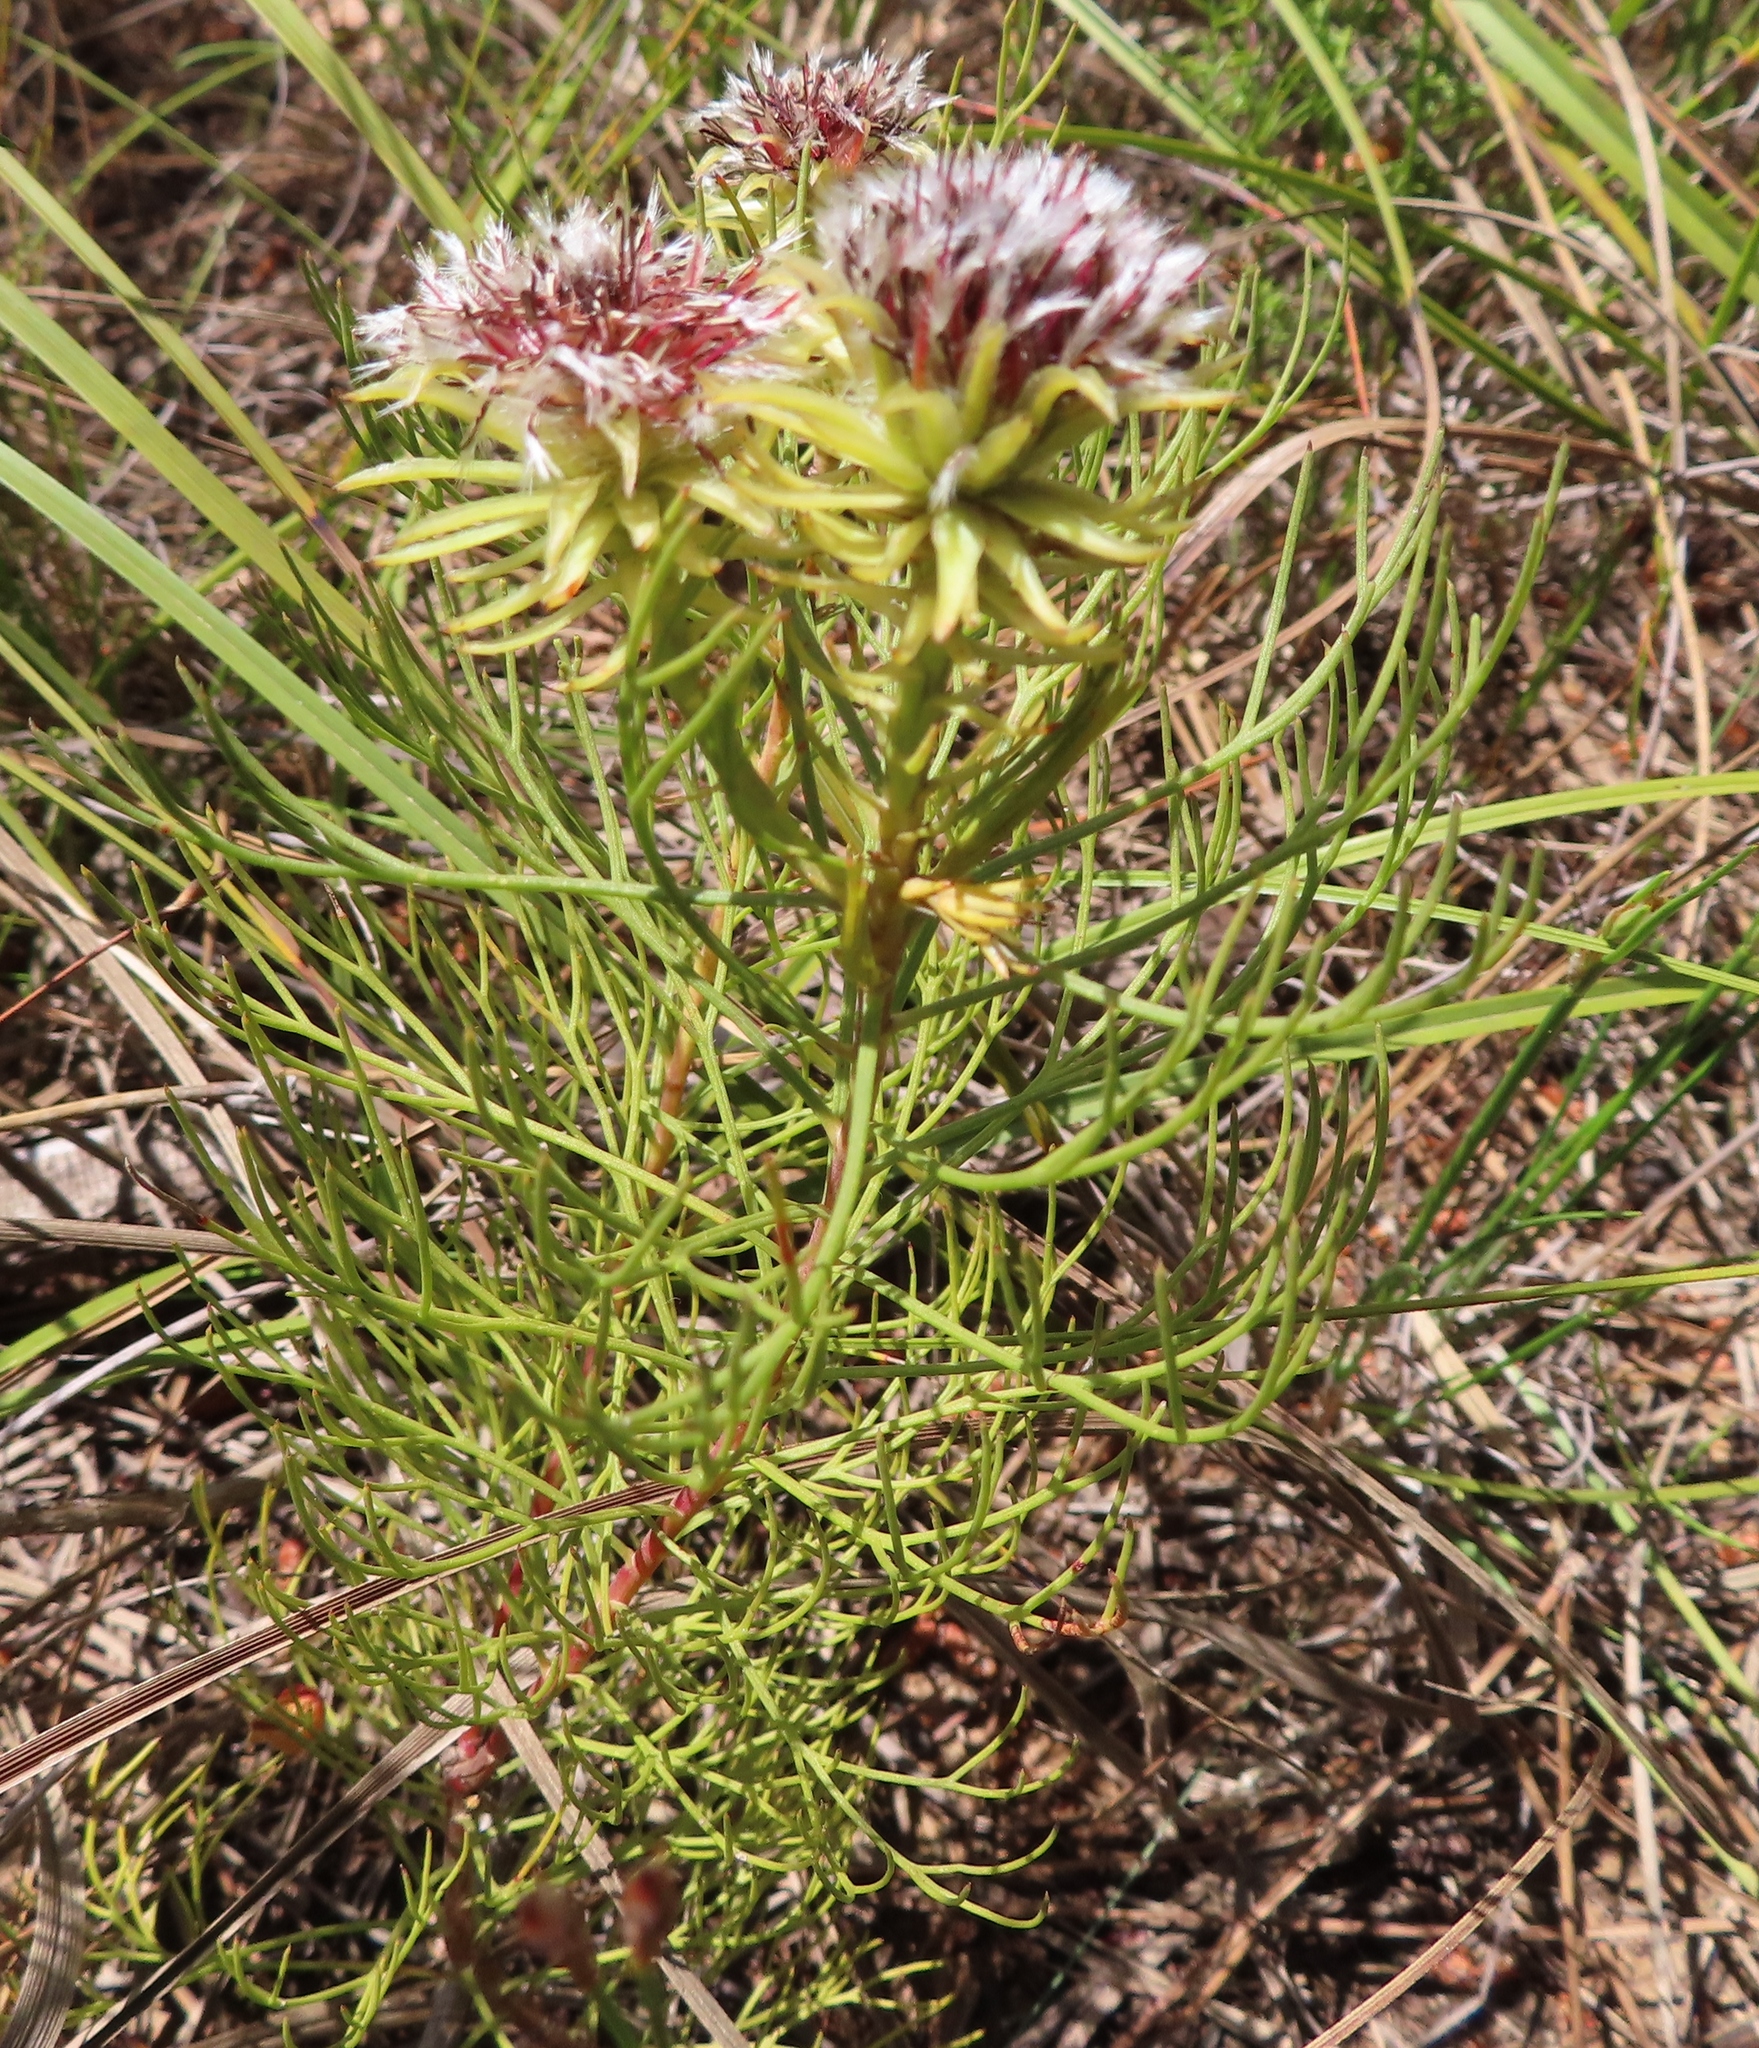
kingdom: Plantae
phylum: Tracheophyta
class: Magnoliopsida
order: Proteales
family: Proteaceae
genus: Serruria
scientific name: Serruria phylicoides
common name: Bearded spiderhead
